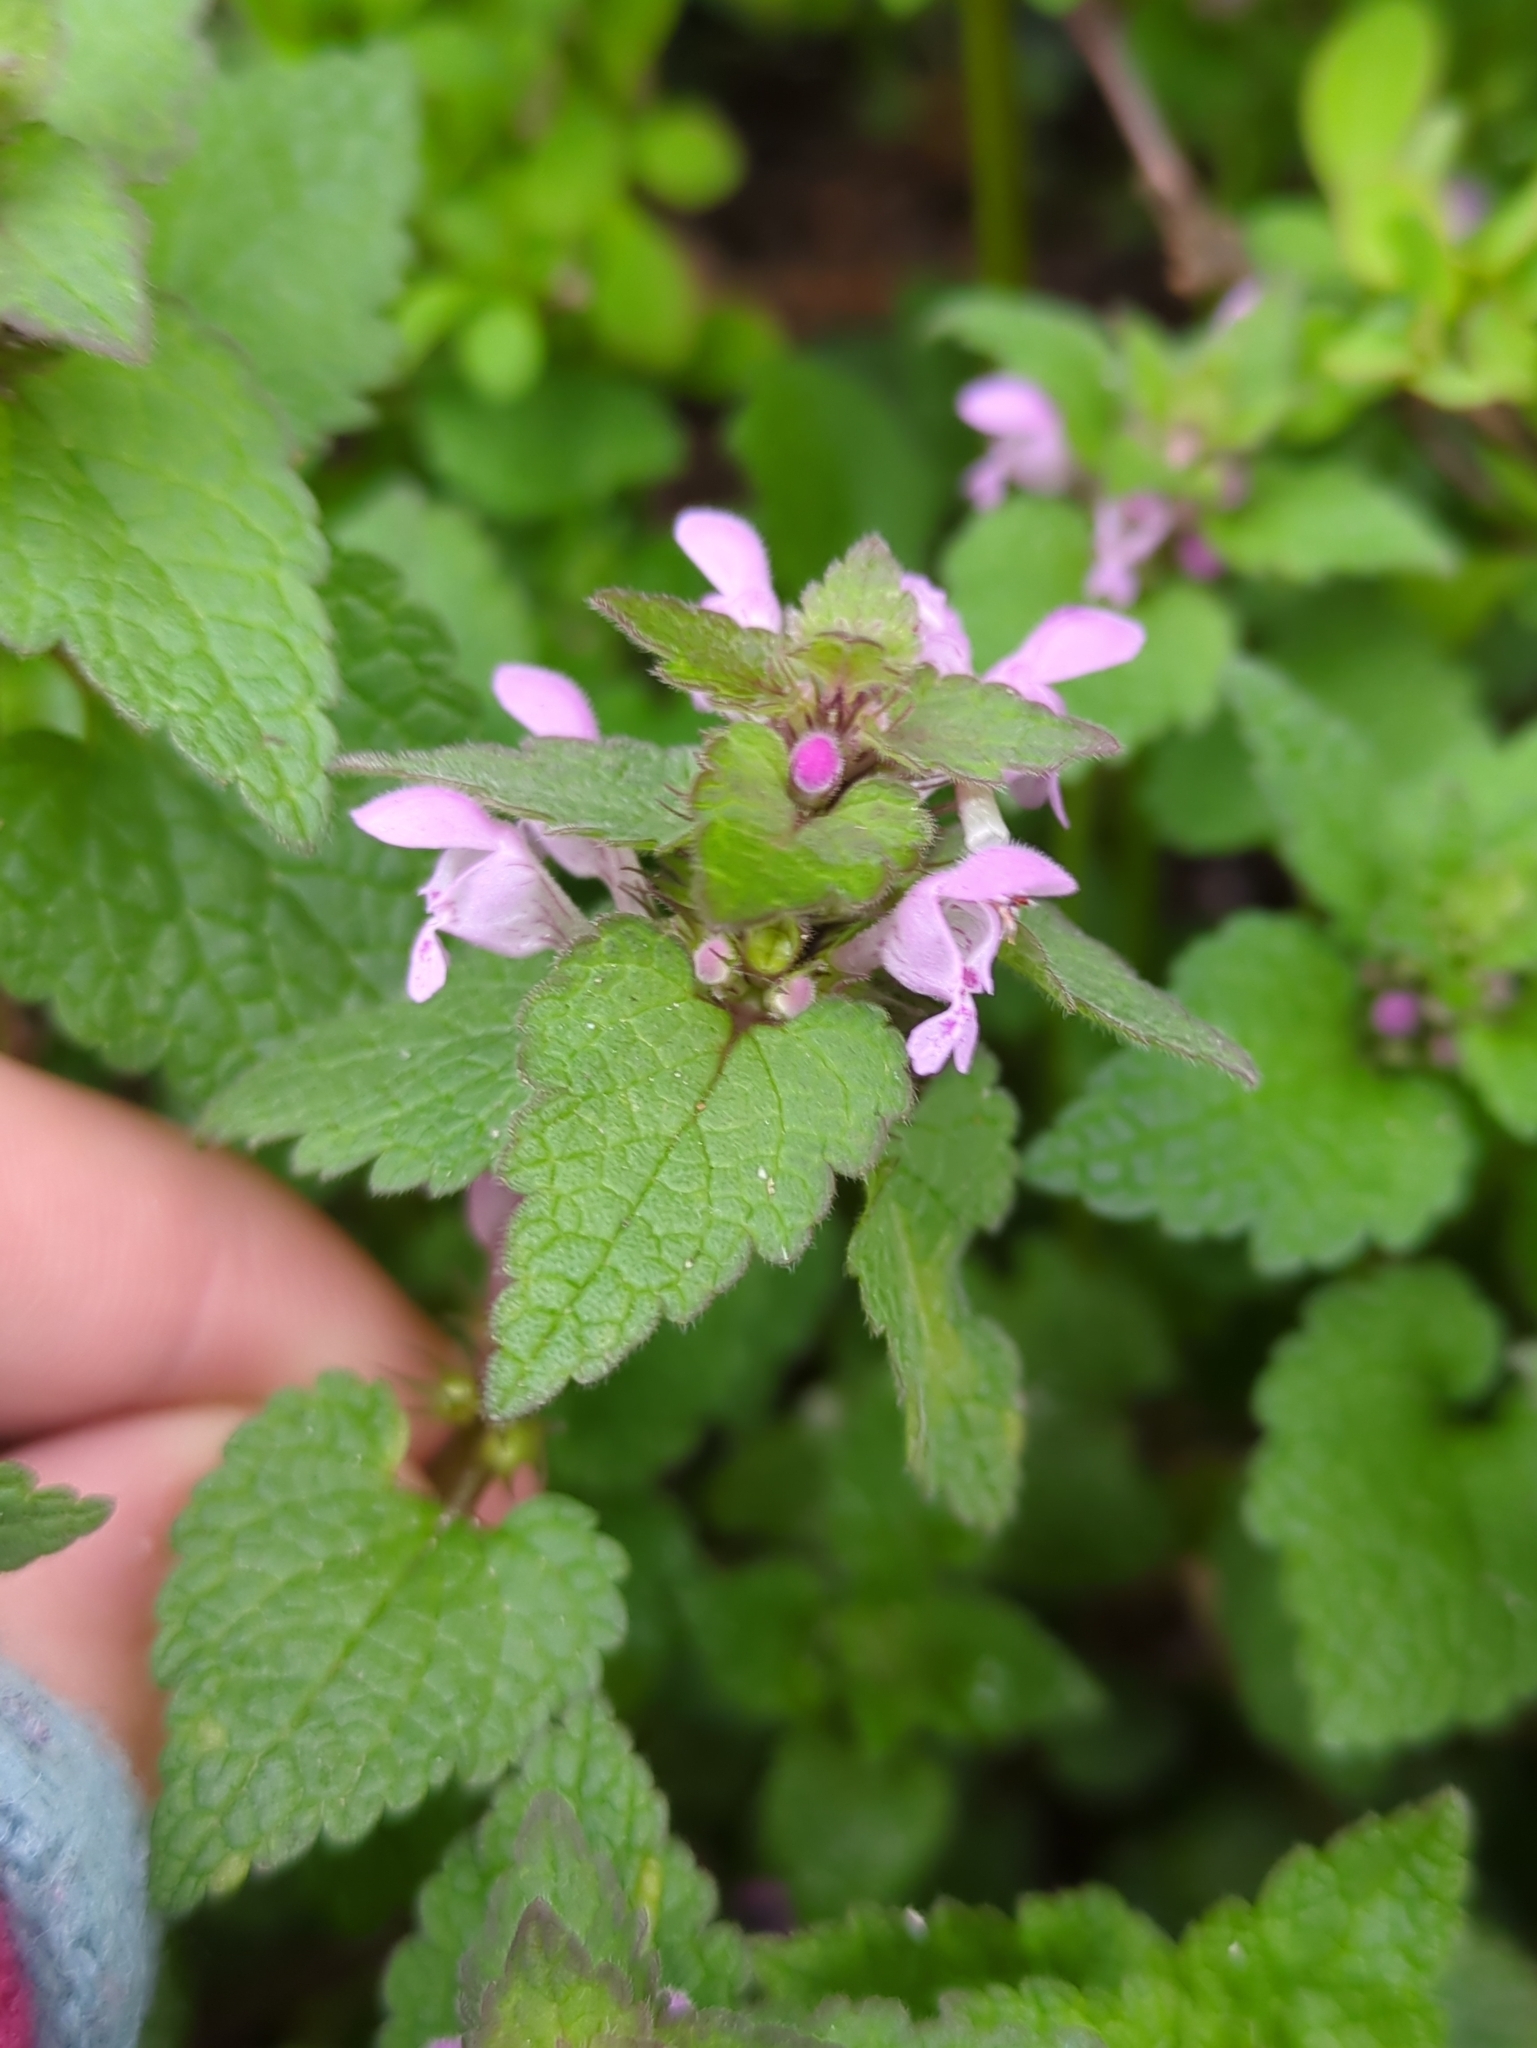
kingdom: Plantae
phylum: Tracheophyta
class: Magnoliopsida
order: Lamiales
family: Lamiaceae
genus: Lamium
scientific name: Lamium purpureum
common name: Red dead-nettle
